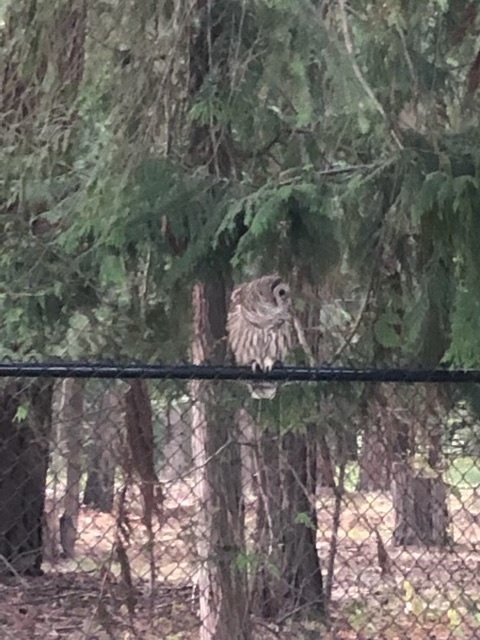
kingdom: Animalia
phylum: Chordata
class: Aves
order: Strigiformes
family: Strigidae
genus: Strix
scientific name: Strix varia
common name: Barred owl
